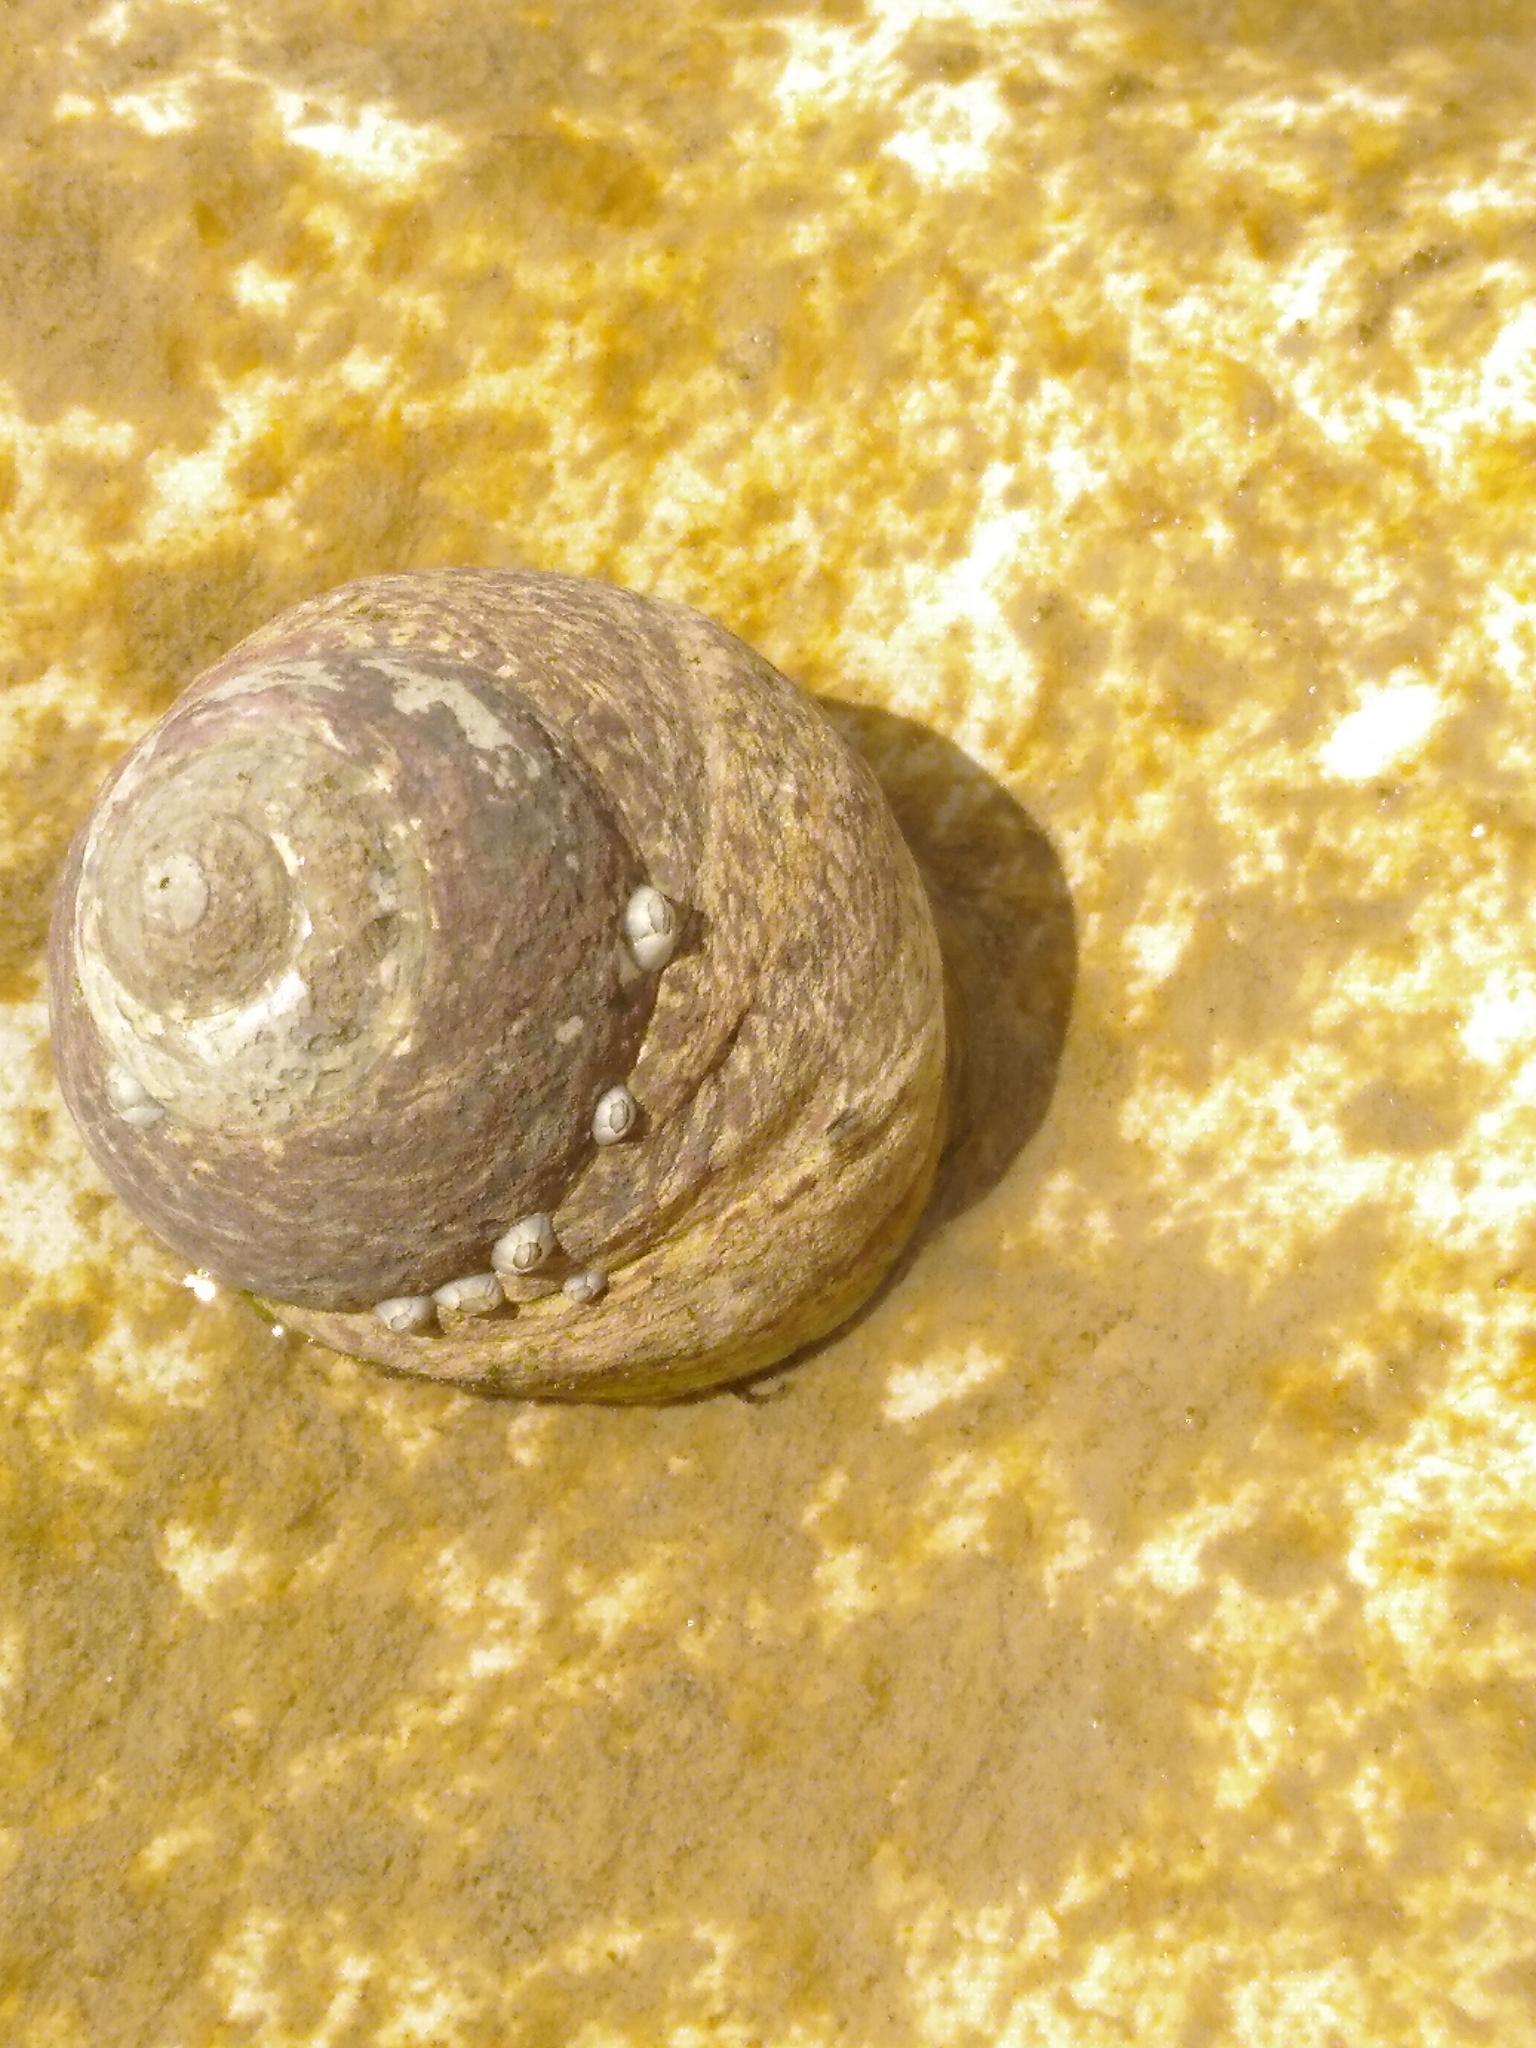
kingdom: Animalia
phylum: Mollusca
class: Gastropoda
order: Trochida
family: Trochidae
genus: Phorcus
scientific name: Phorcus lineatus
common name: Toothed top shell
